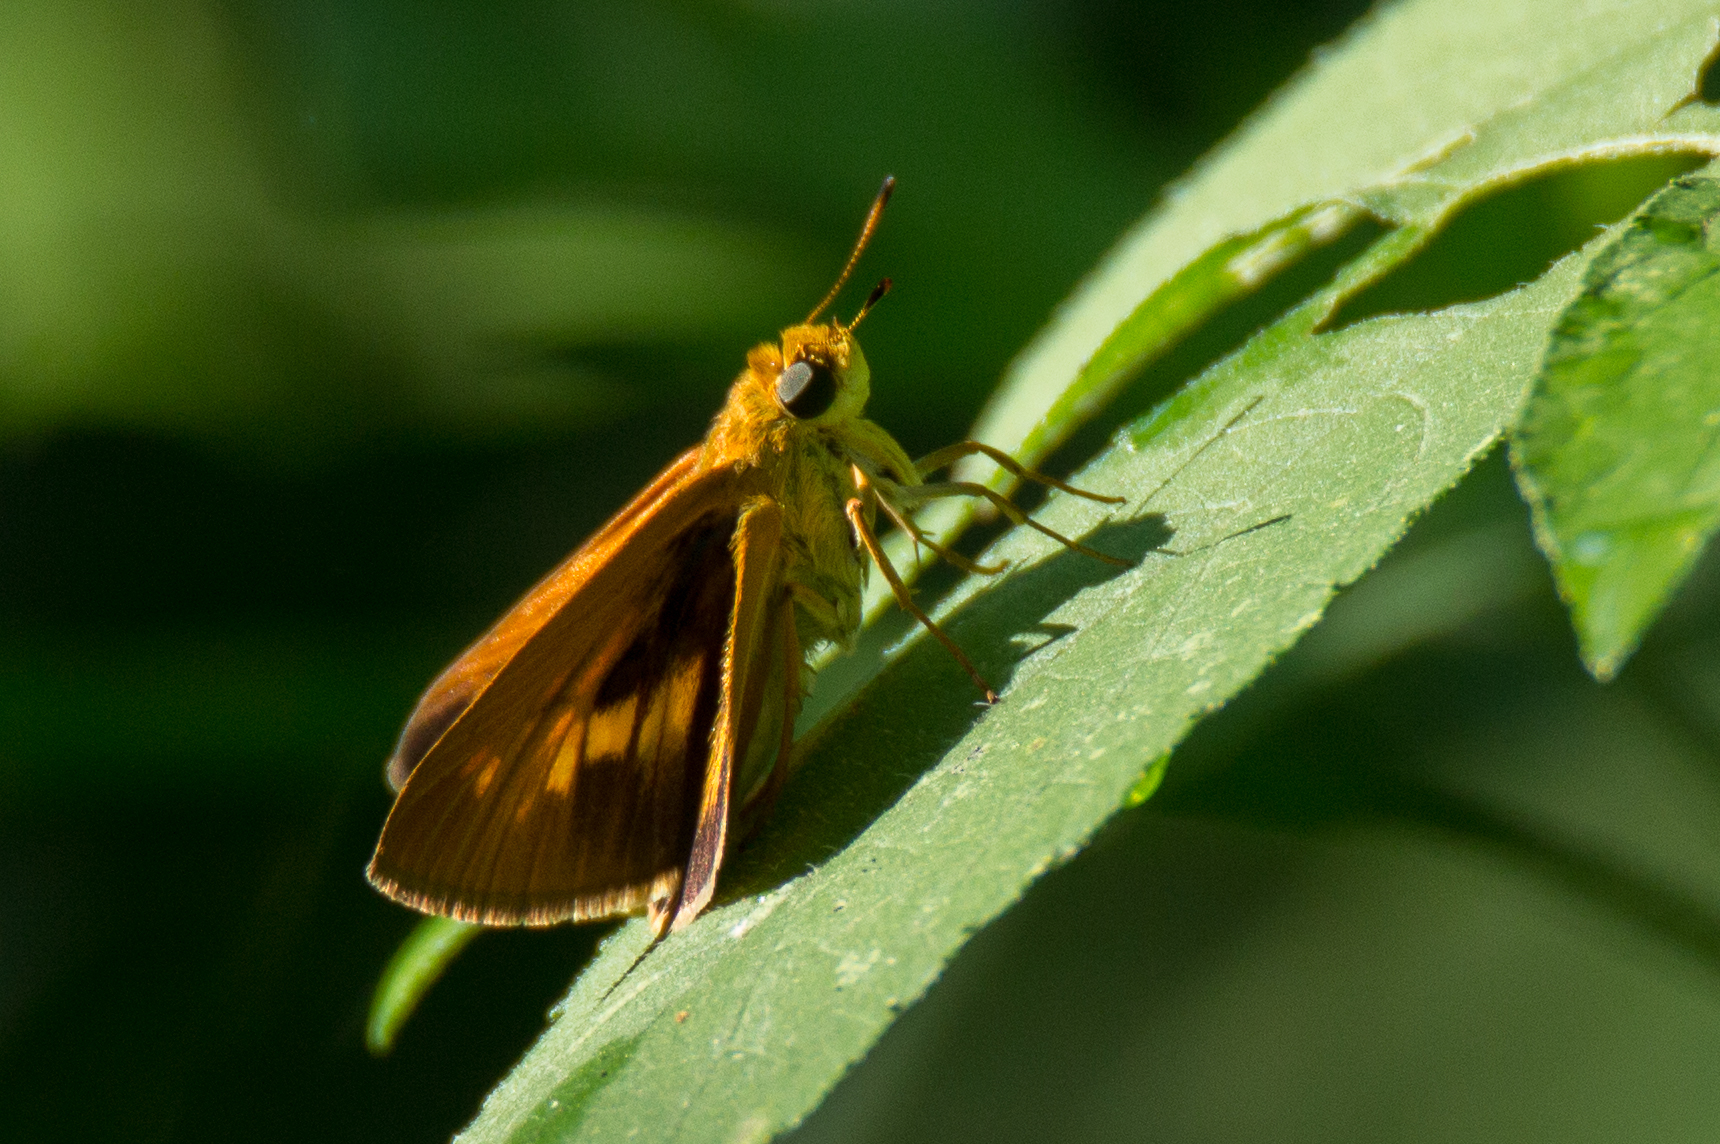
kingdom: Animalia
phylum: Arthropoda
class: Insecta
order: Lepidoptera
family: Hesperiidae
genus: Hylephila
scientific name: Hylephila phyleus
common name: Fiery skipper
